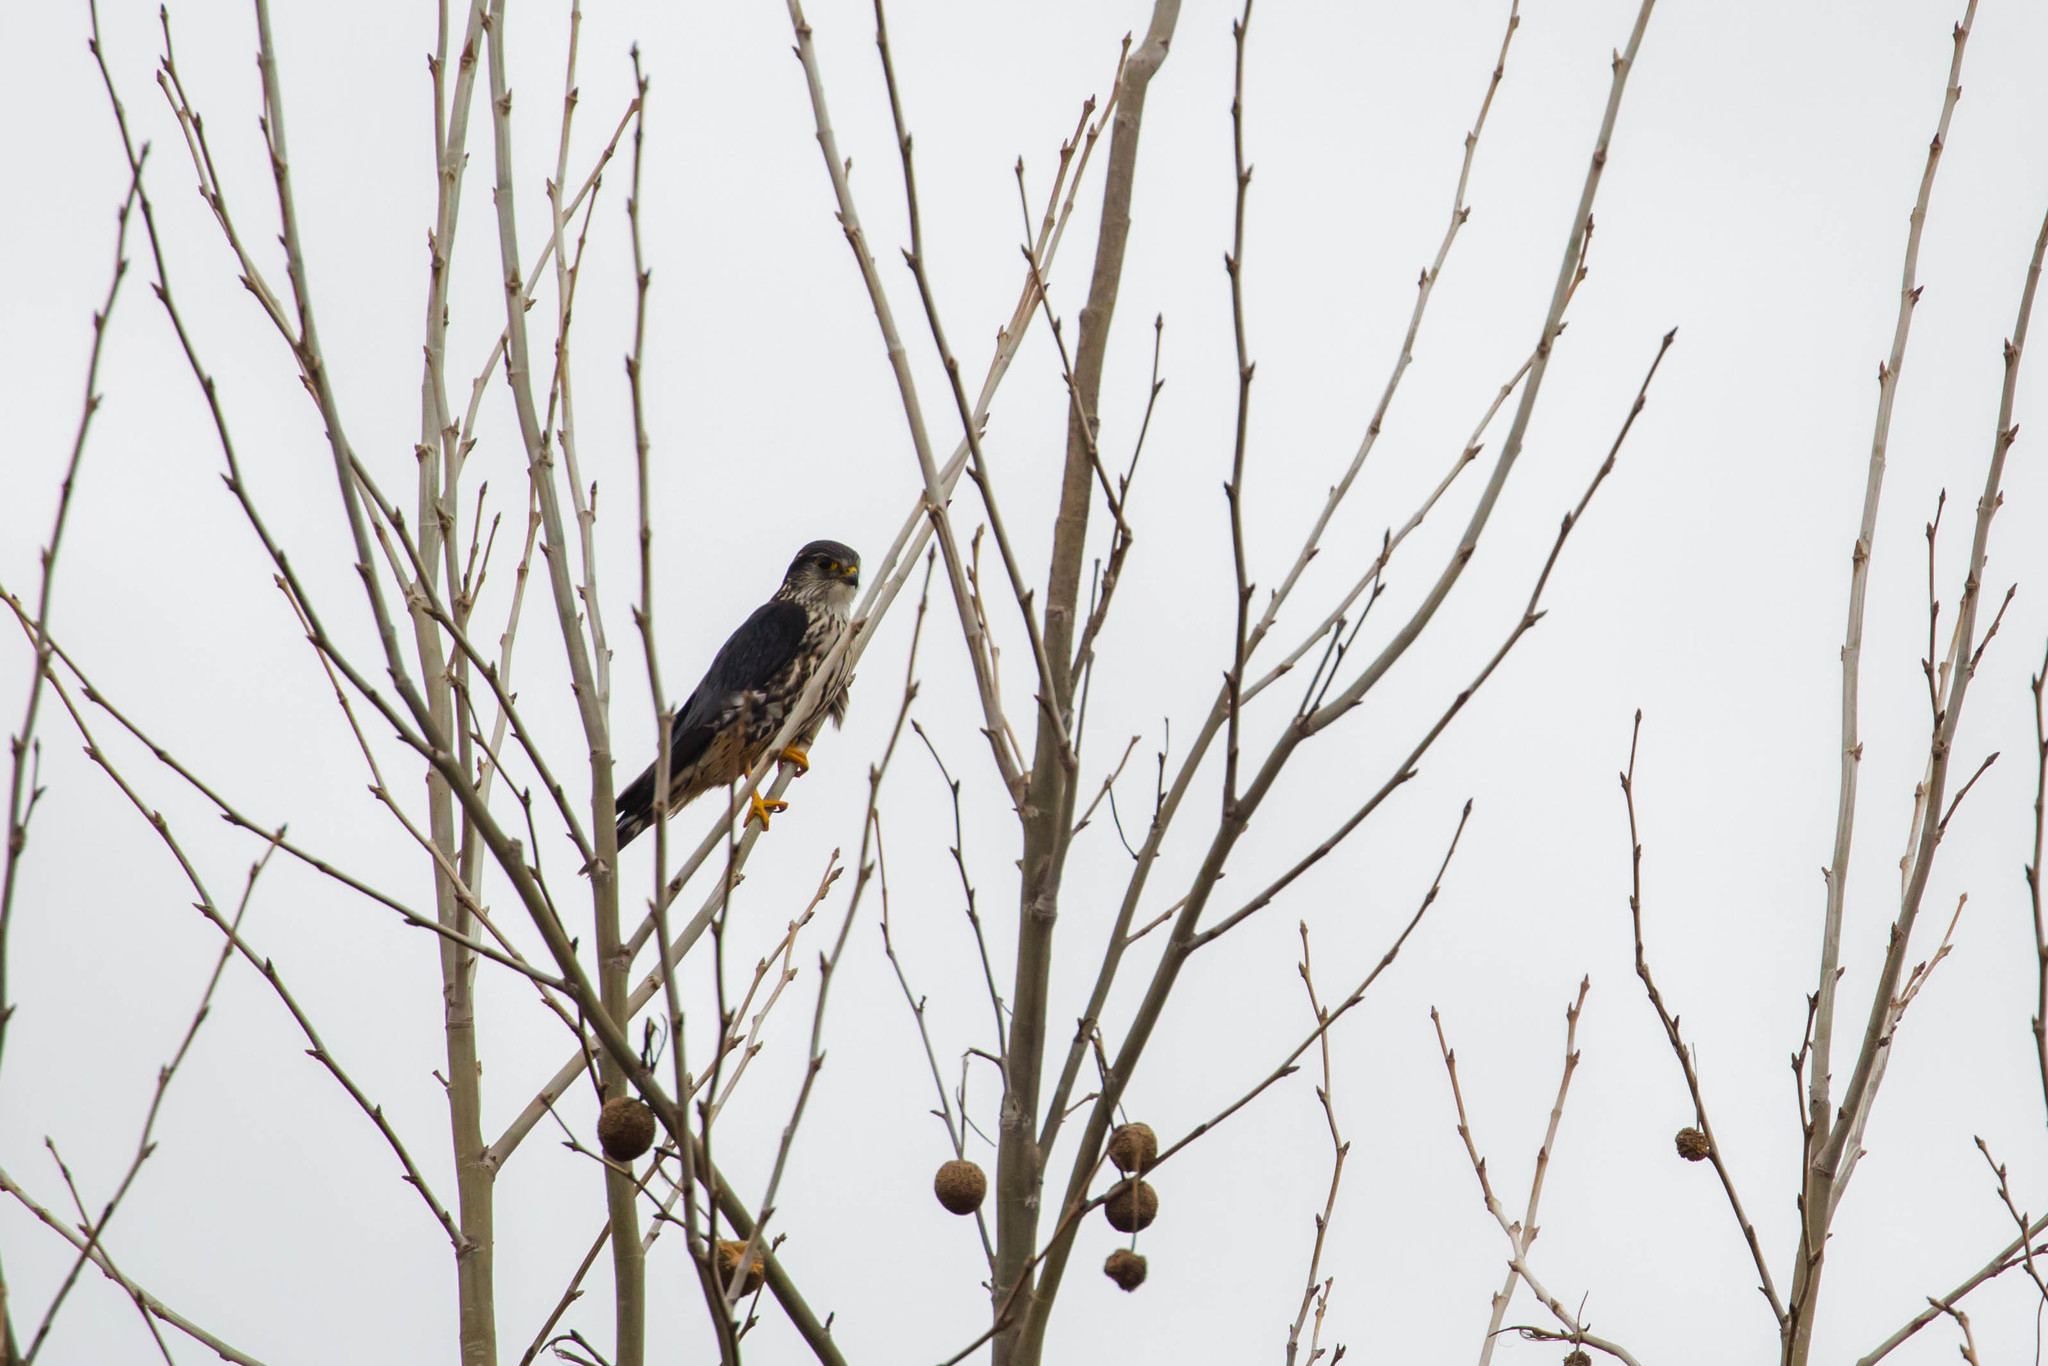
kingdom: Animalia
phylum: Chordata
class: Aves
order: Falconiformes
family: Falconidae
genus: Falco
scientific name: Falco columbarius
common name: Merlin
